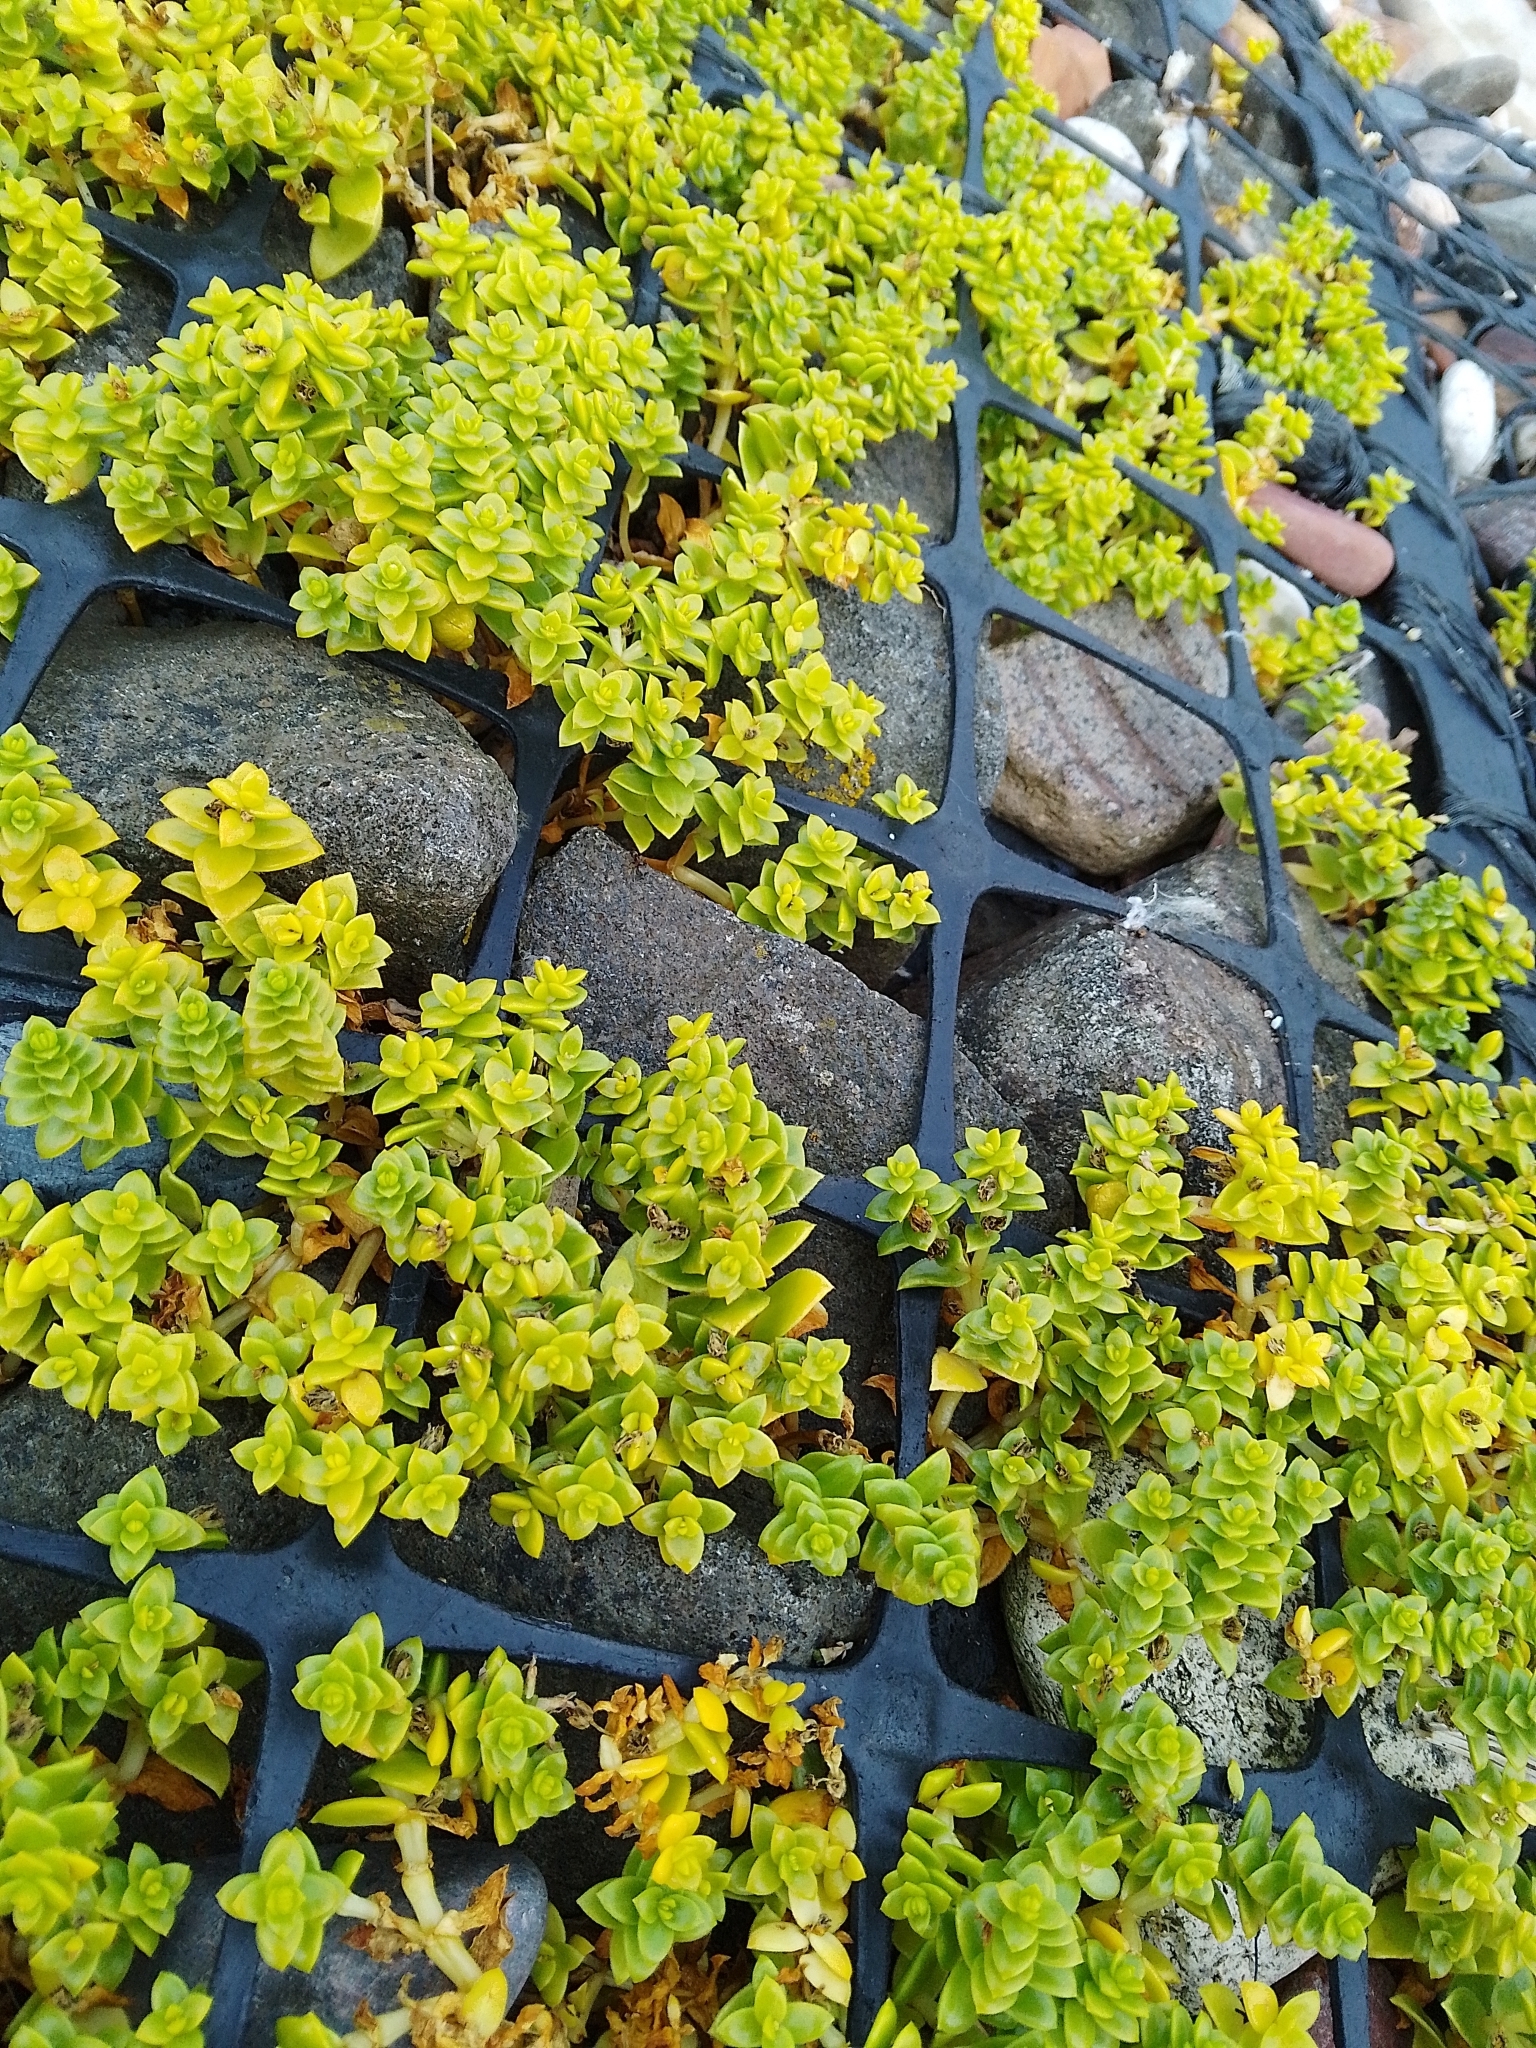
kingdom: Plantae
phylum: Tracheophyta
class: Magnoliopsida
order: Caryophyllales
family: Caryophyllaceae
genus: Honckenya
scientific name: Honckenya peploides
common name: Sea sandwort
